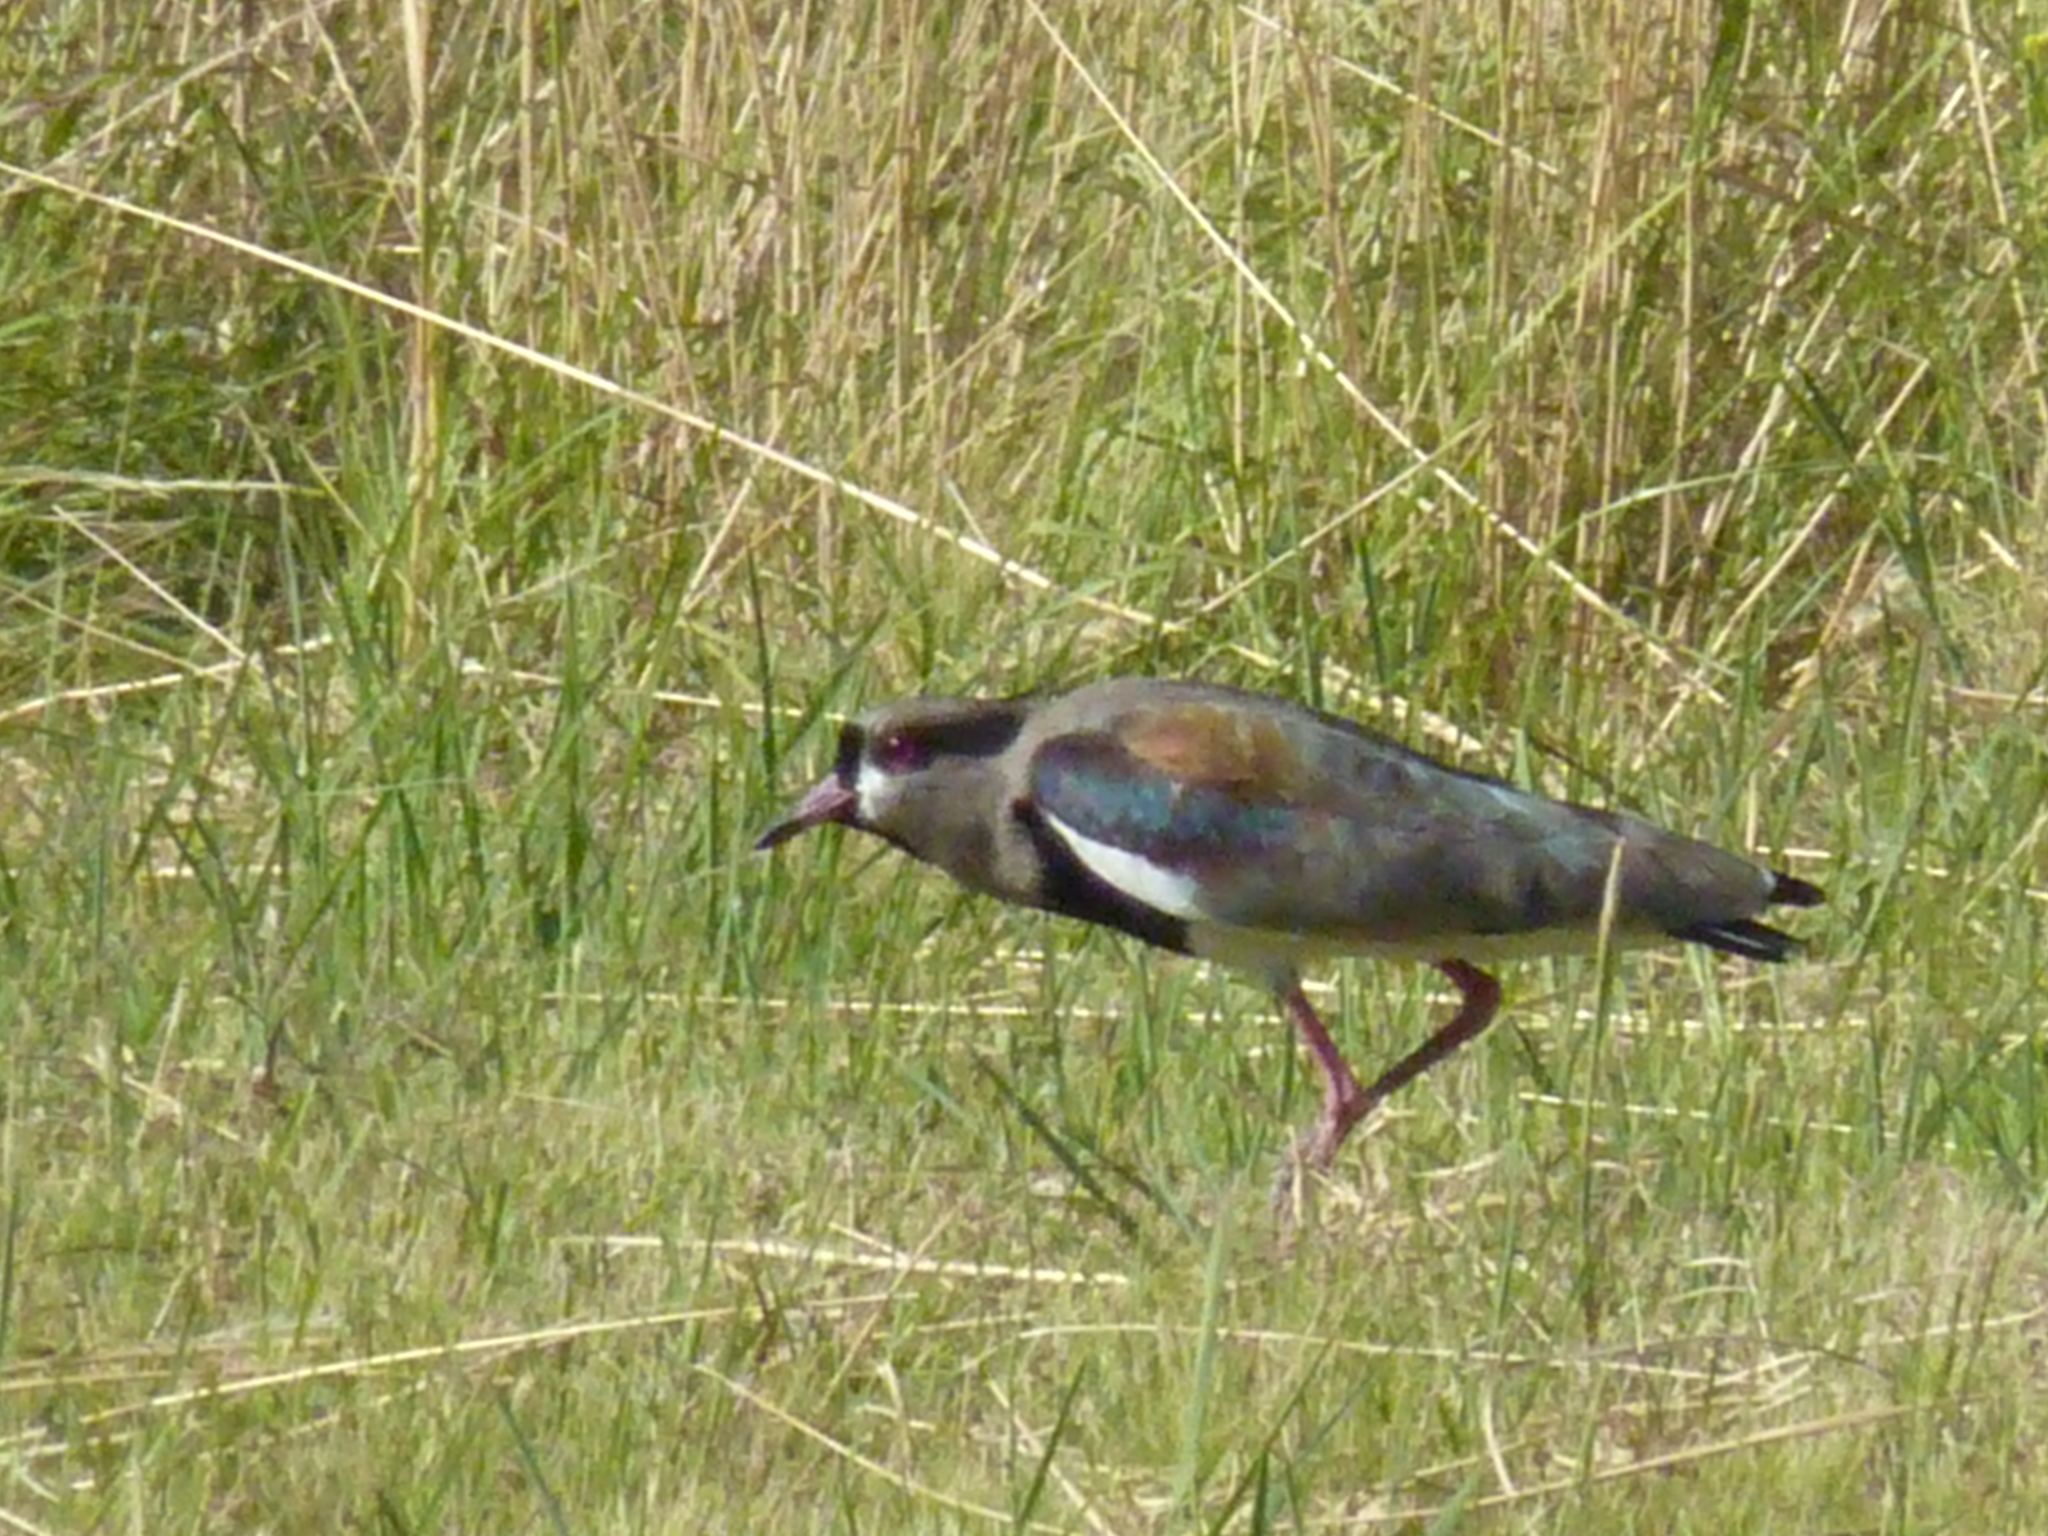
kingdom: Animalia
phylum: Chordata
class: Aves
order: Charadriiformes
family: Charadriidae
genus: Vanellus
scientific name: Vanellus chilensis
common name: Southern lapwing
